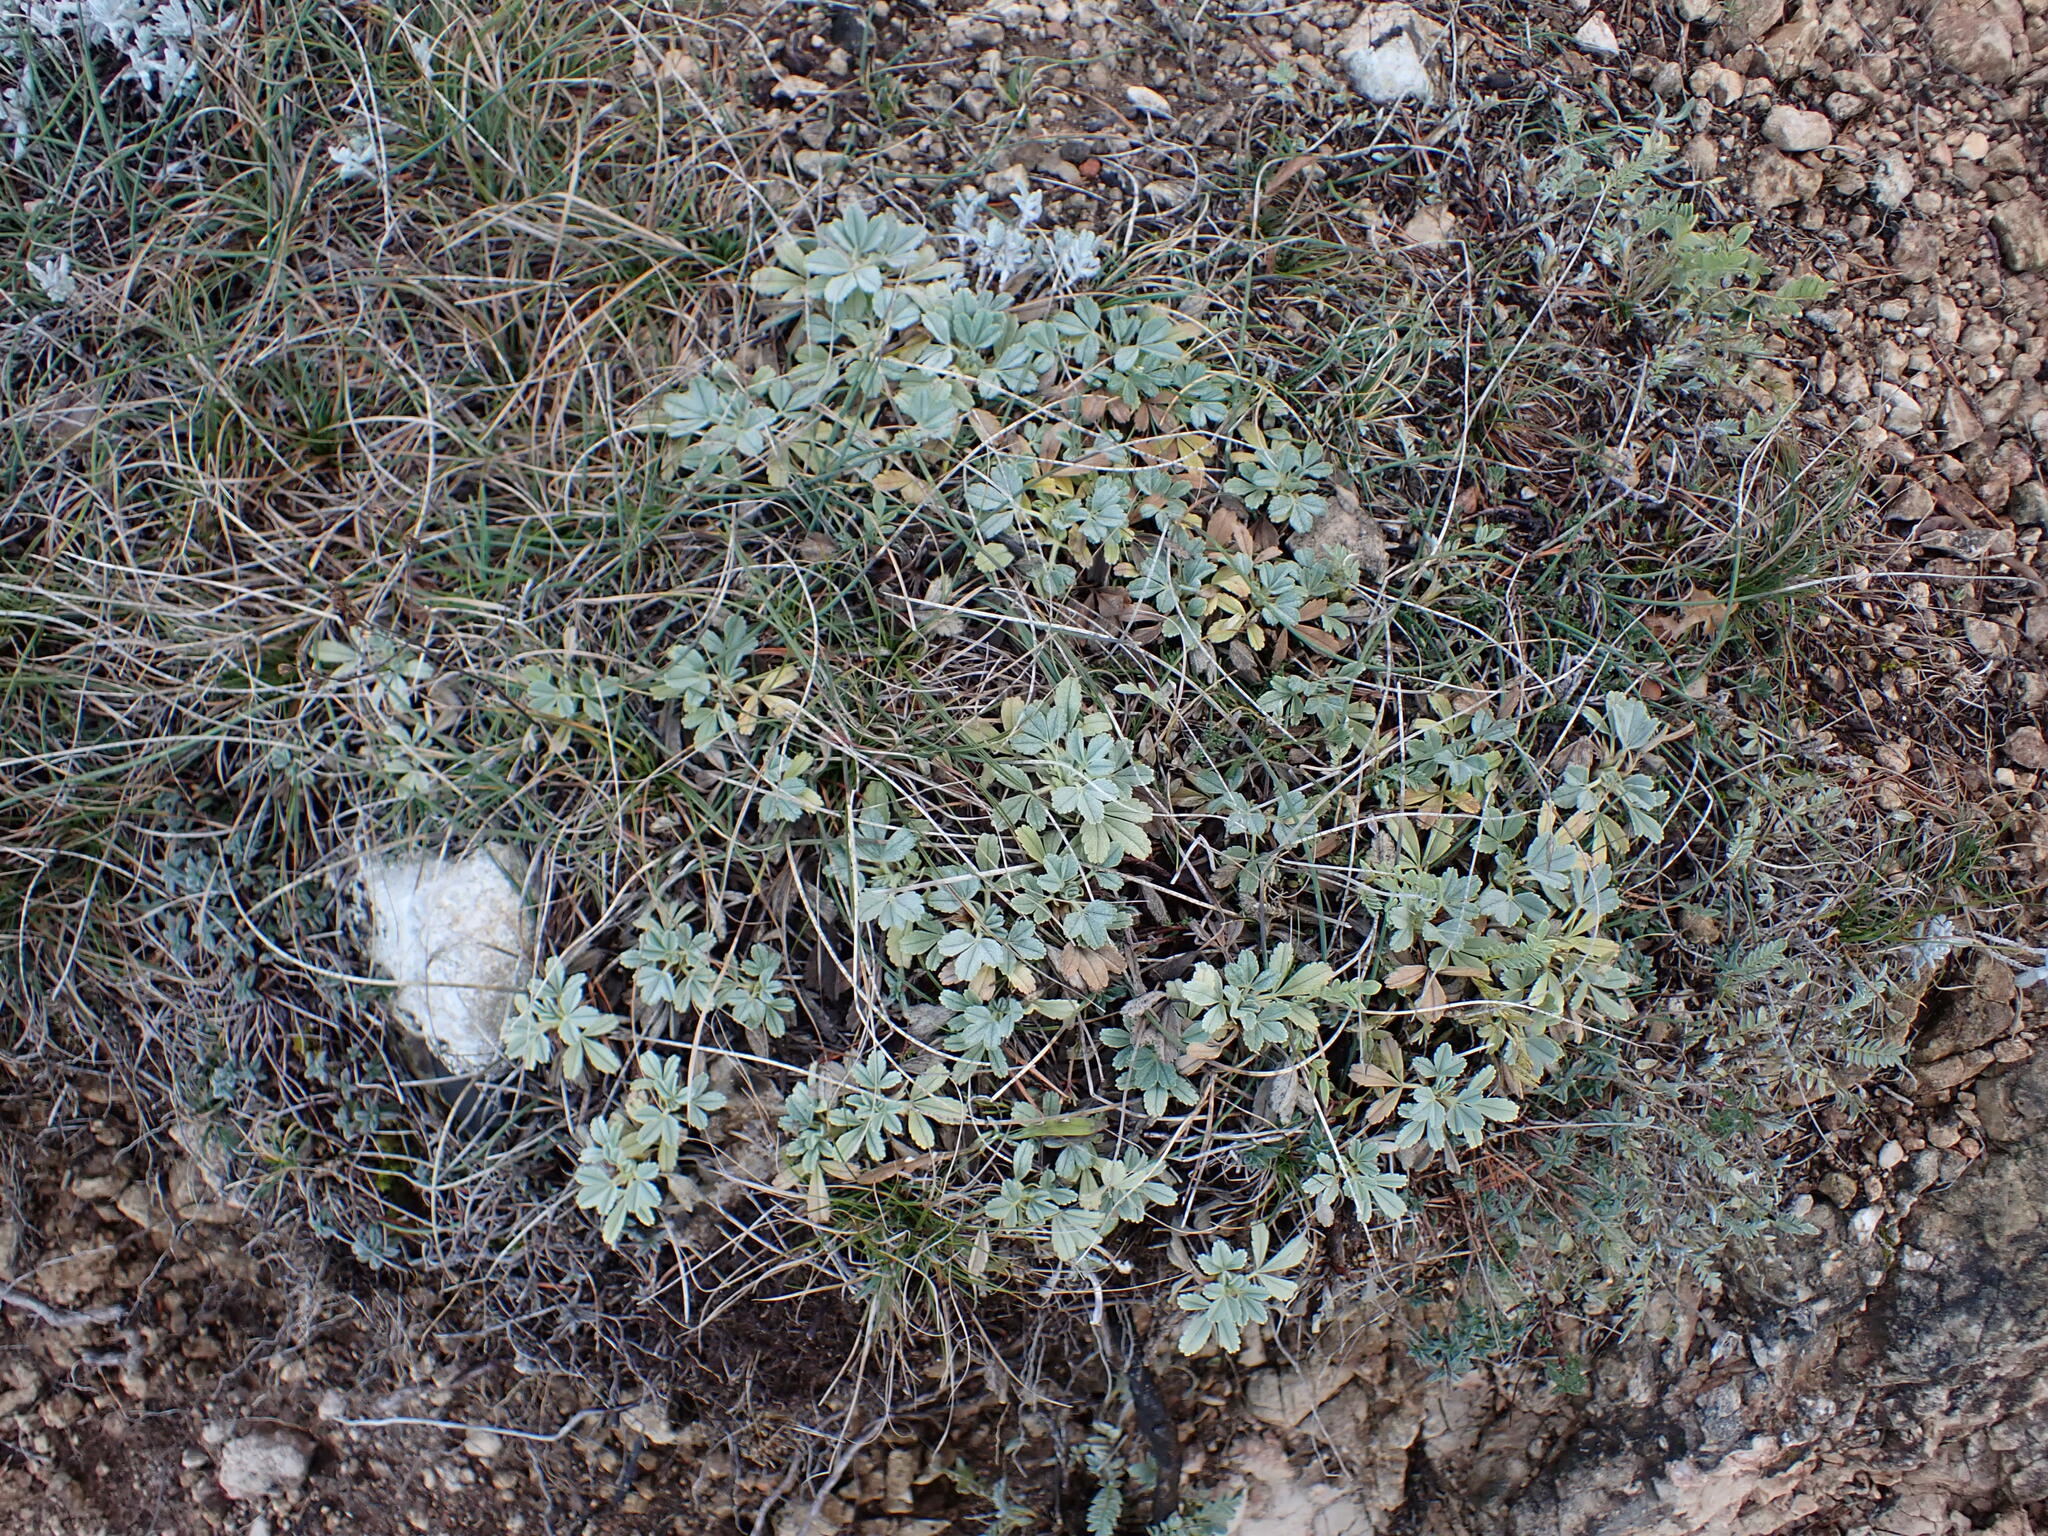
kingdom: Plantae
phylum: Tracheophyta
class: Magnoliopsida
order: Rosales
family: Rosaceae
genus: Potentilla
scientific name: Potentilla cinerea
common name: Ashy cinquefoil
